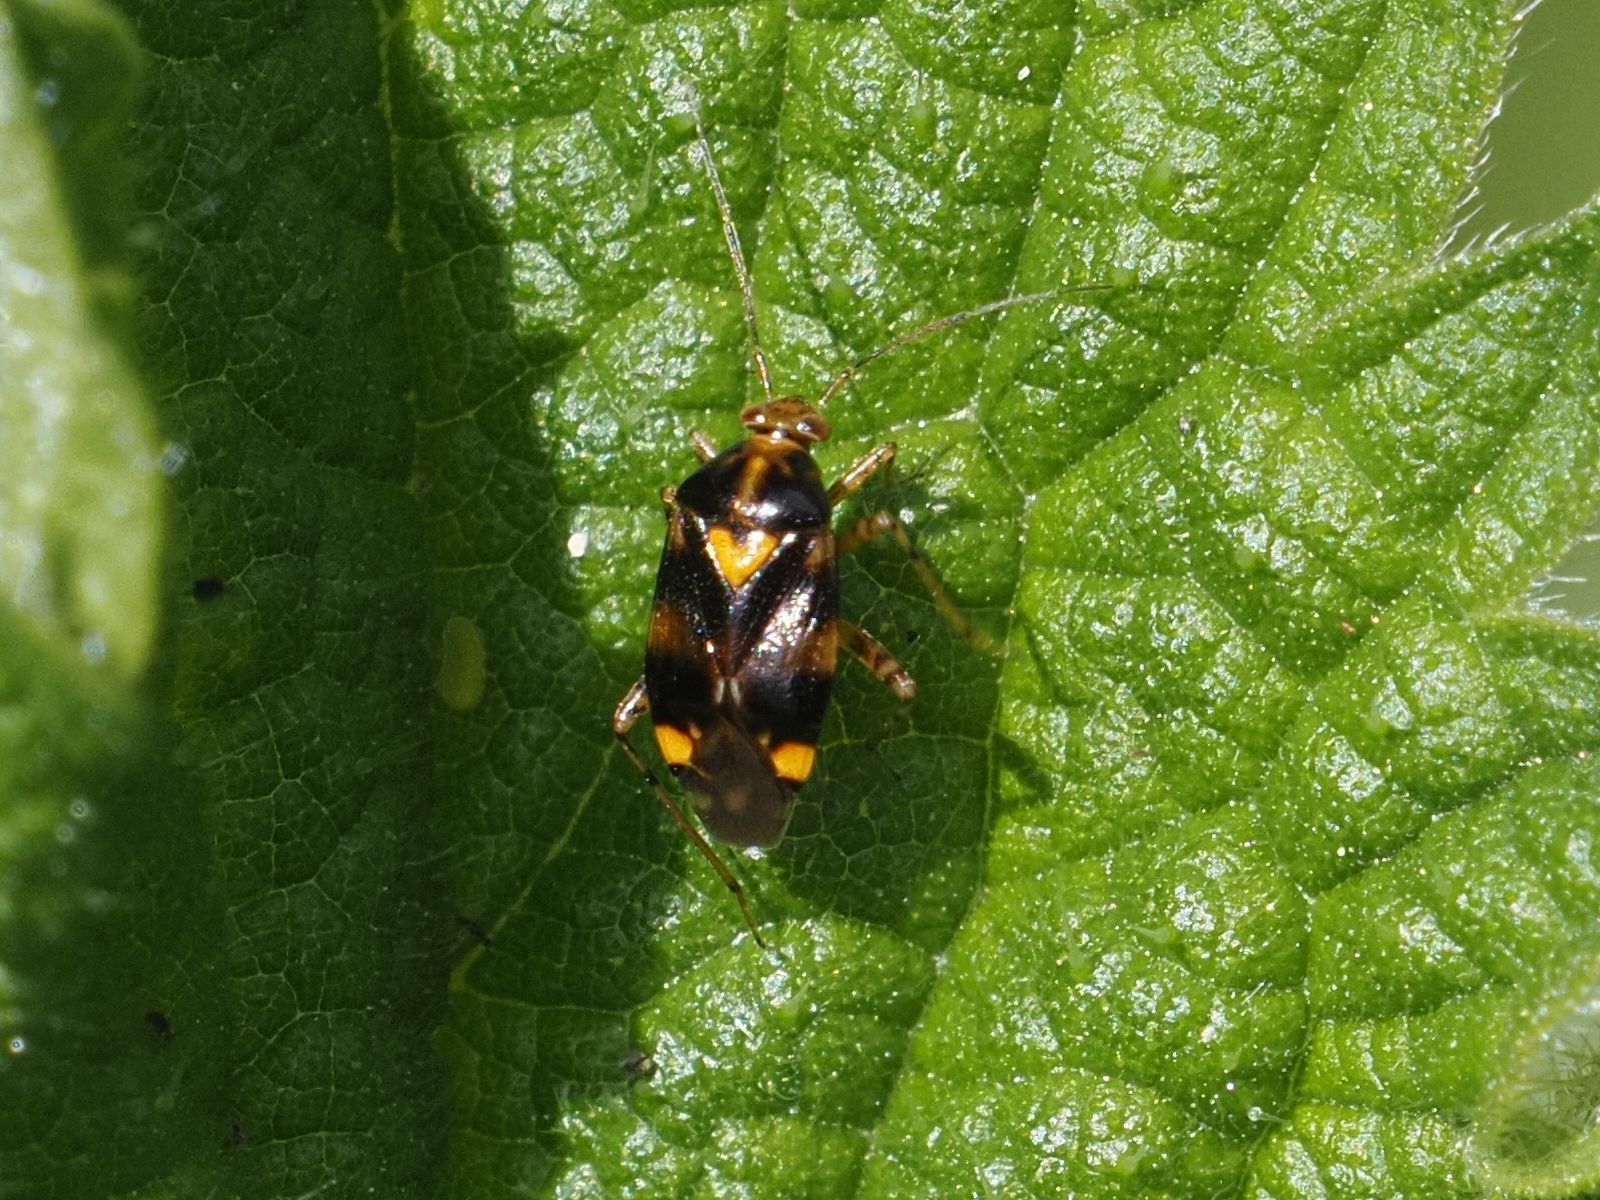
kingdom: Animalia
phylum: Arthropoda
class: Insecta
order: Hemiptera
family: Miridae
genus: Liocoris
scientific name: Liocoris tripustulatus
